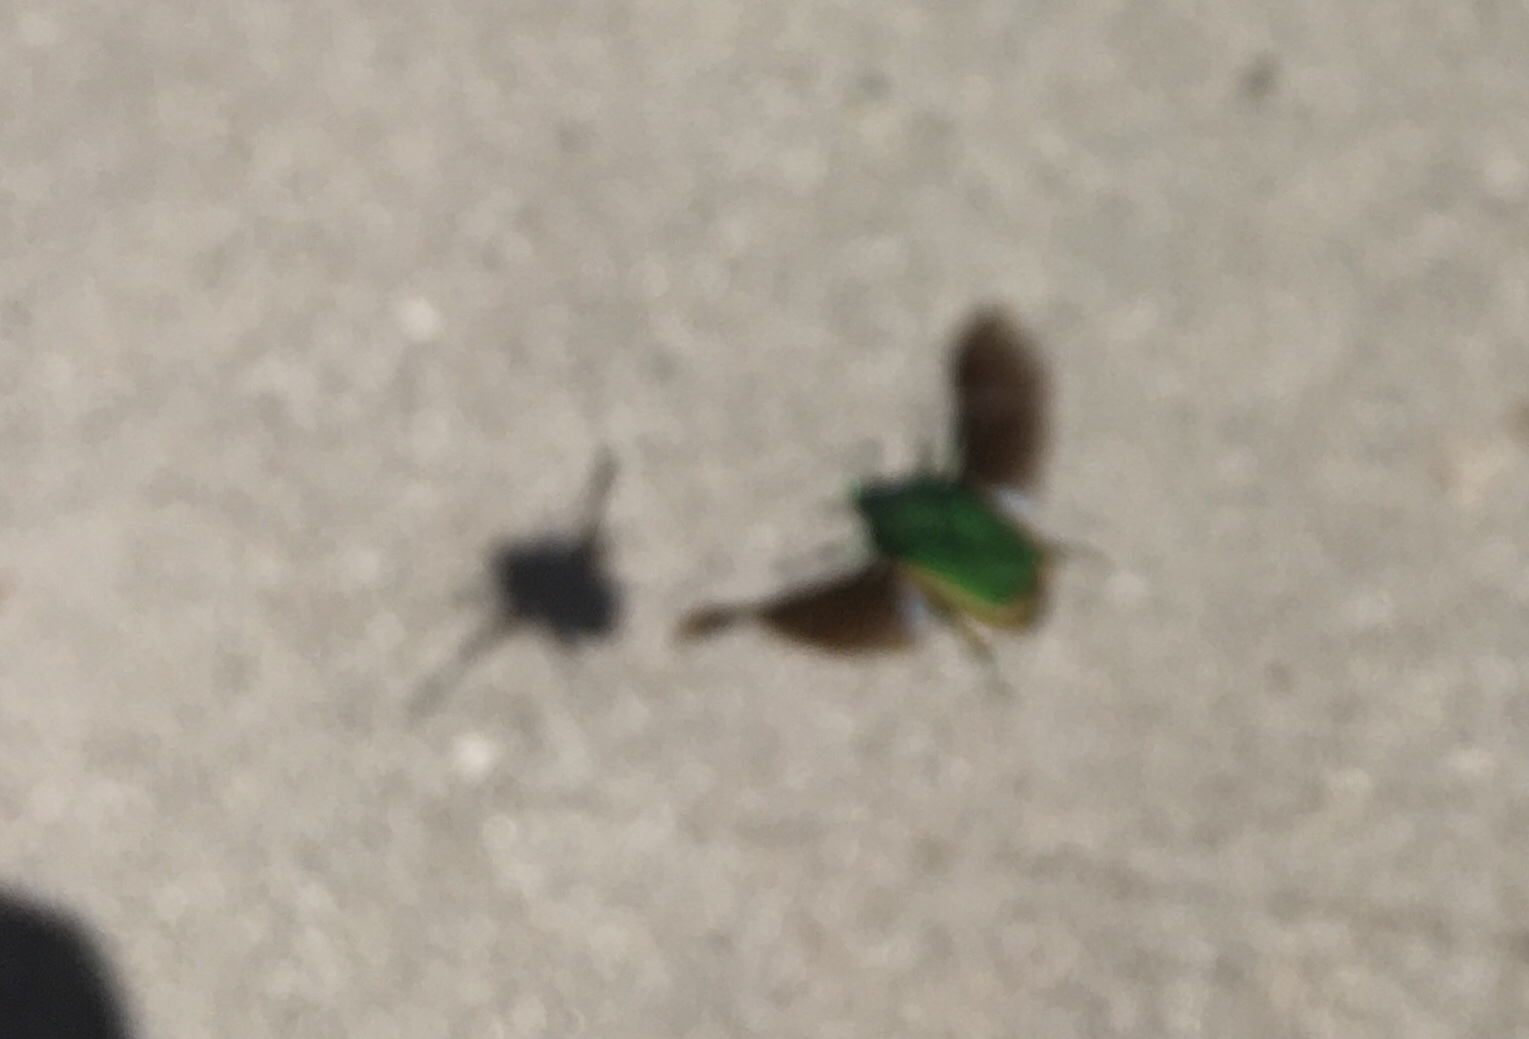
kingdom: Animalia
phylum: Arthropoda
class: Insecta
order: Coleoptera
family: Scarabaeidae
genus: Cotinis
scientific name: Cotinis mutabilis
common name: Figeater beetle
